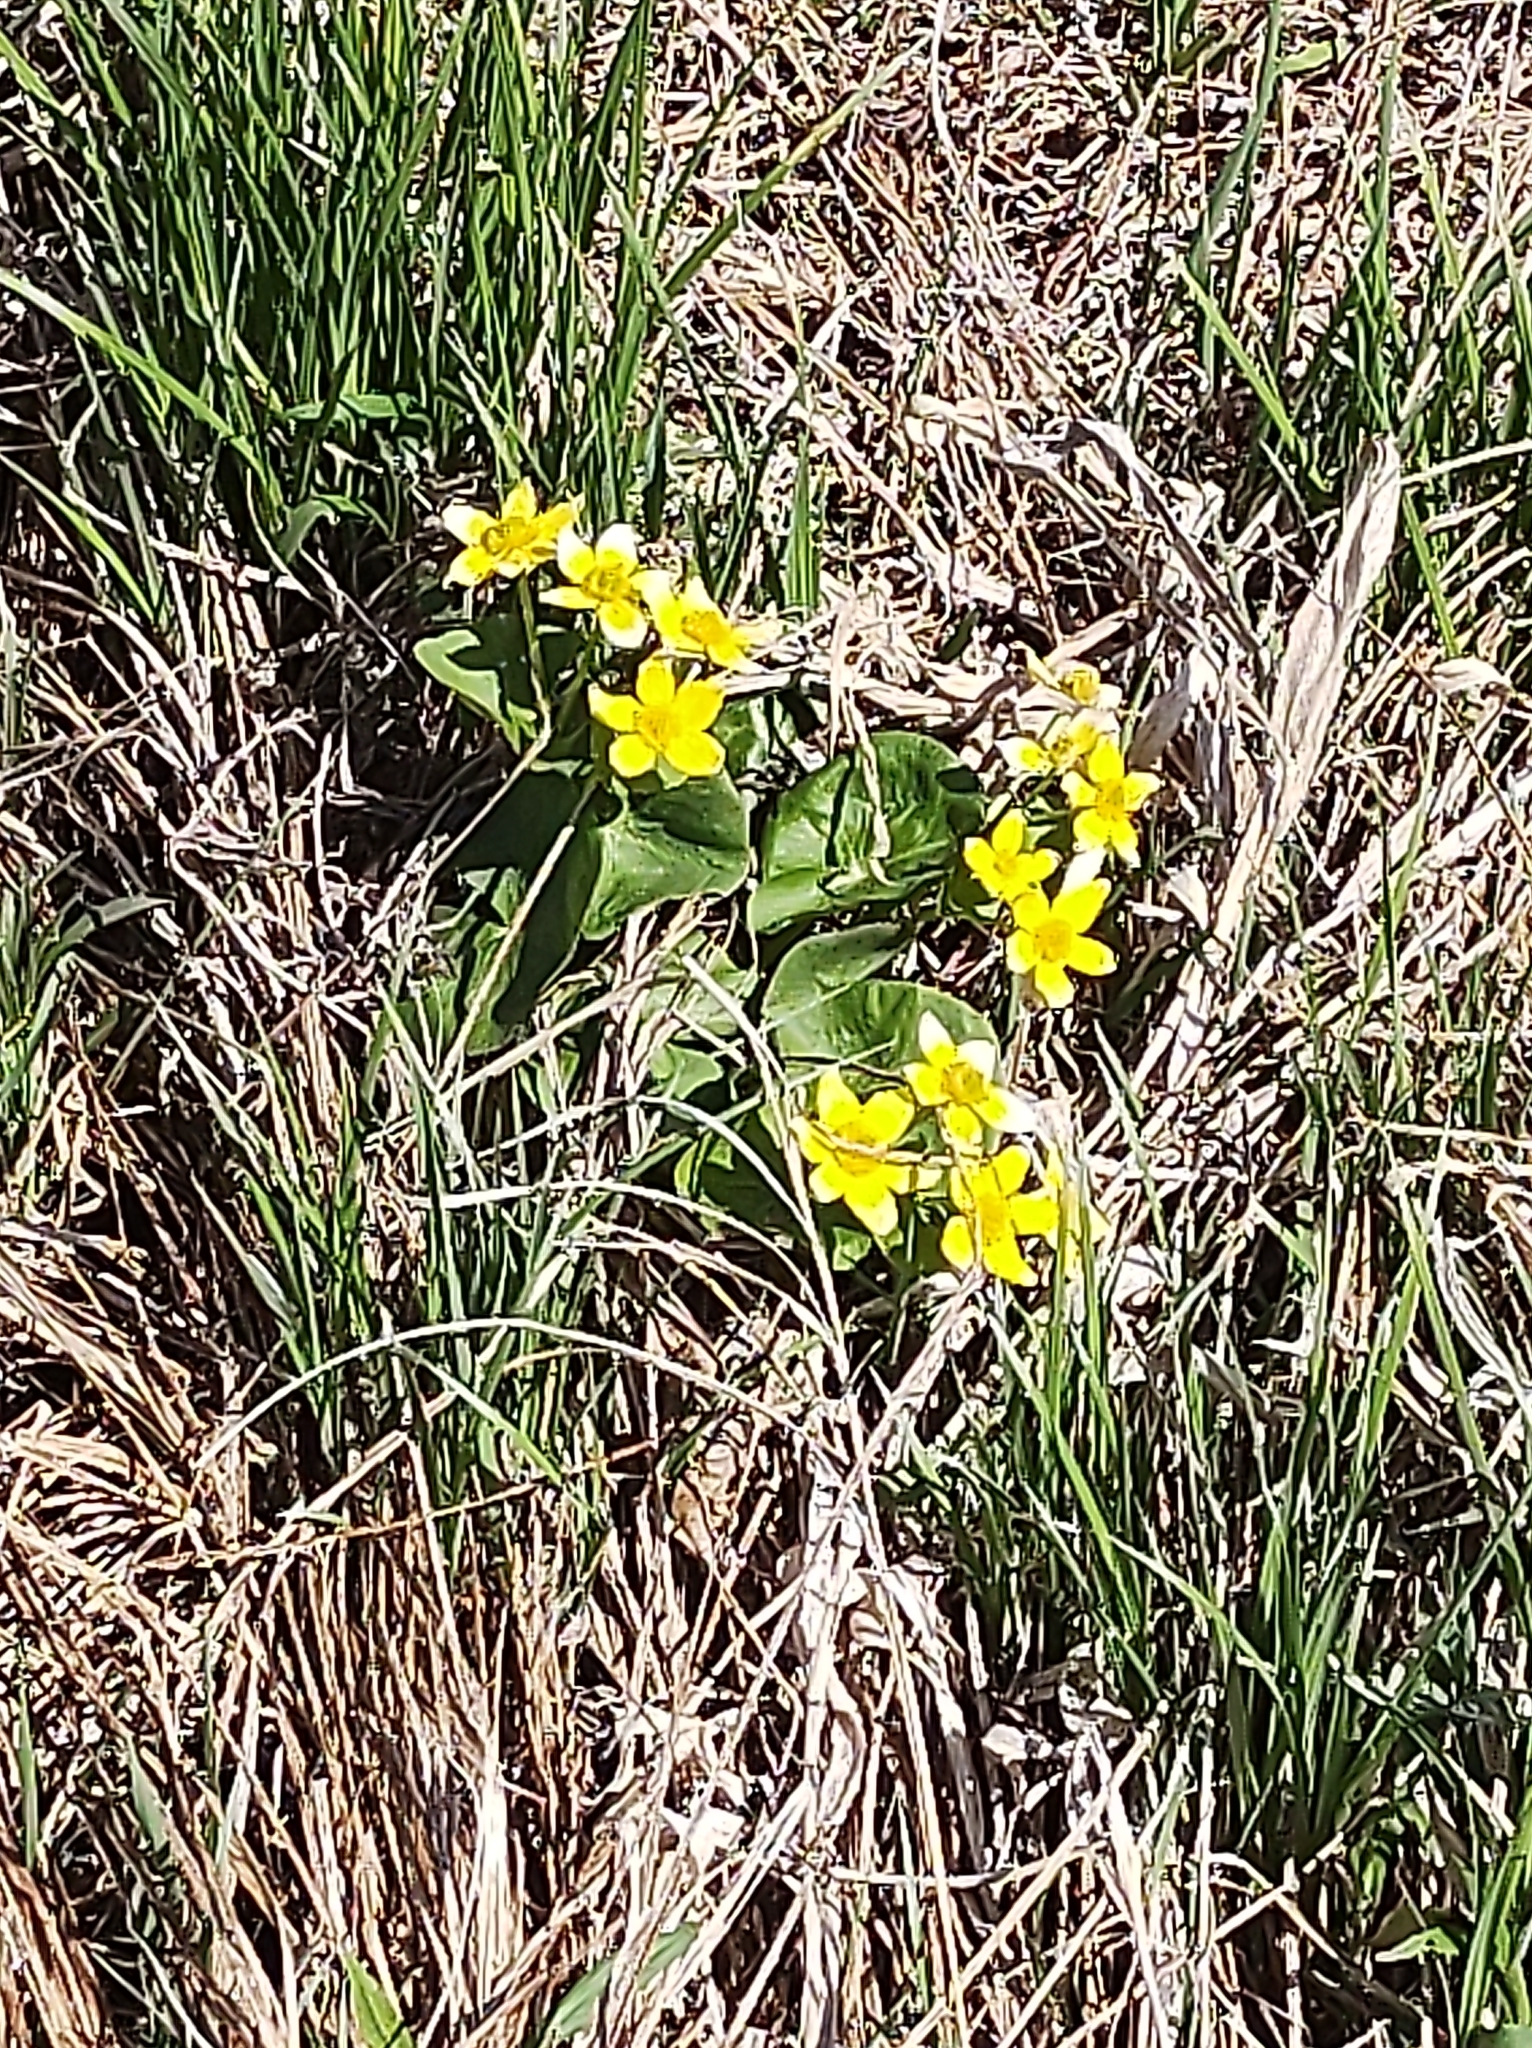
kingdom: Plantae
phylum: Tracheophyta
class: Magnoliopsida
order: Ranunculales
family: Ranunculaceae
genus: Caltha
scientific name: Caltha palustris
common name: Marsh marigold
